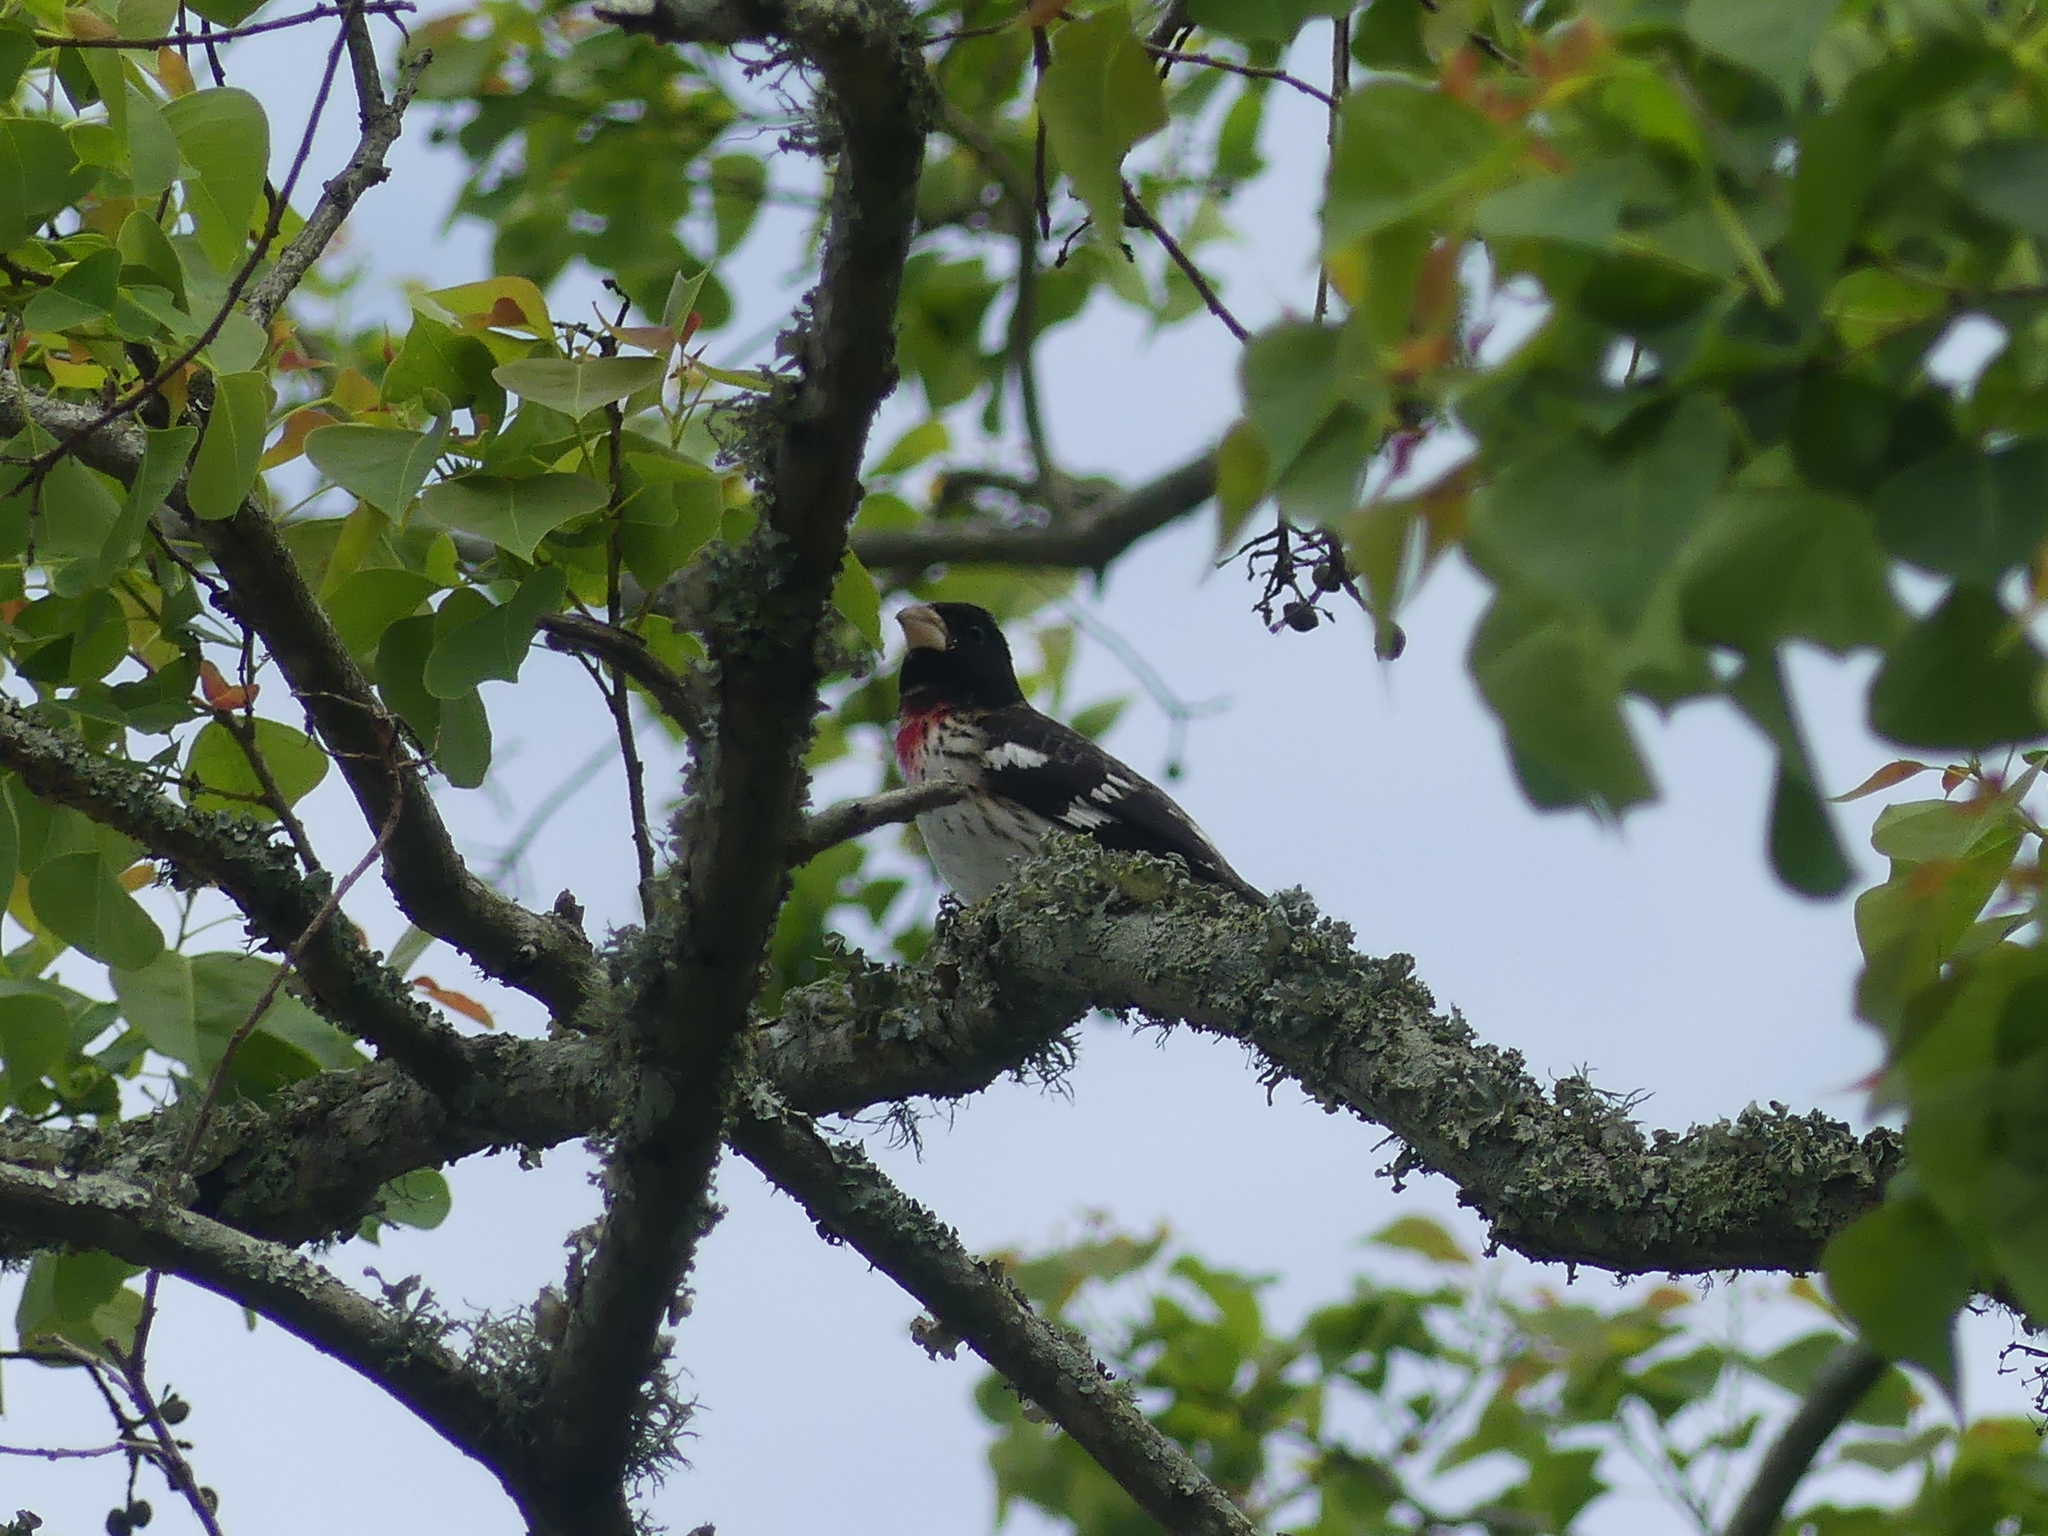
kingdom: Animalia
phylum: Chordata
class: Aves
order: Passeriformes
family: Cardinalidae
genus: Pheucticus
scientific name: Pheucticus ludovicianus
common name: Rose-breasted grosbeak
